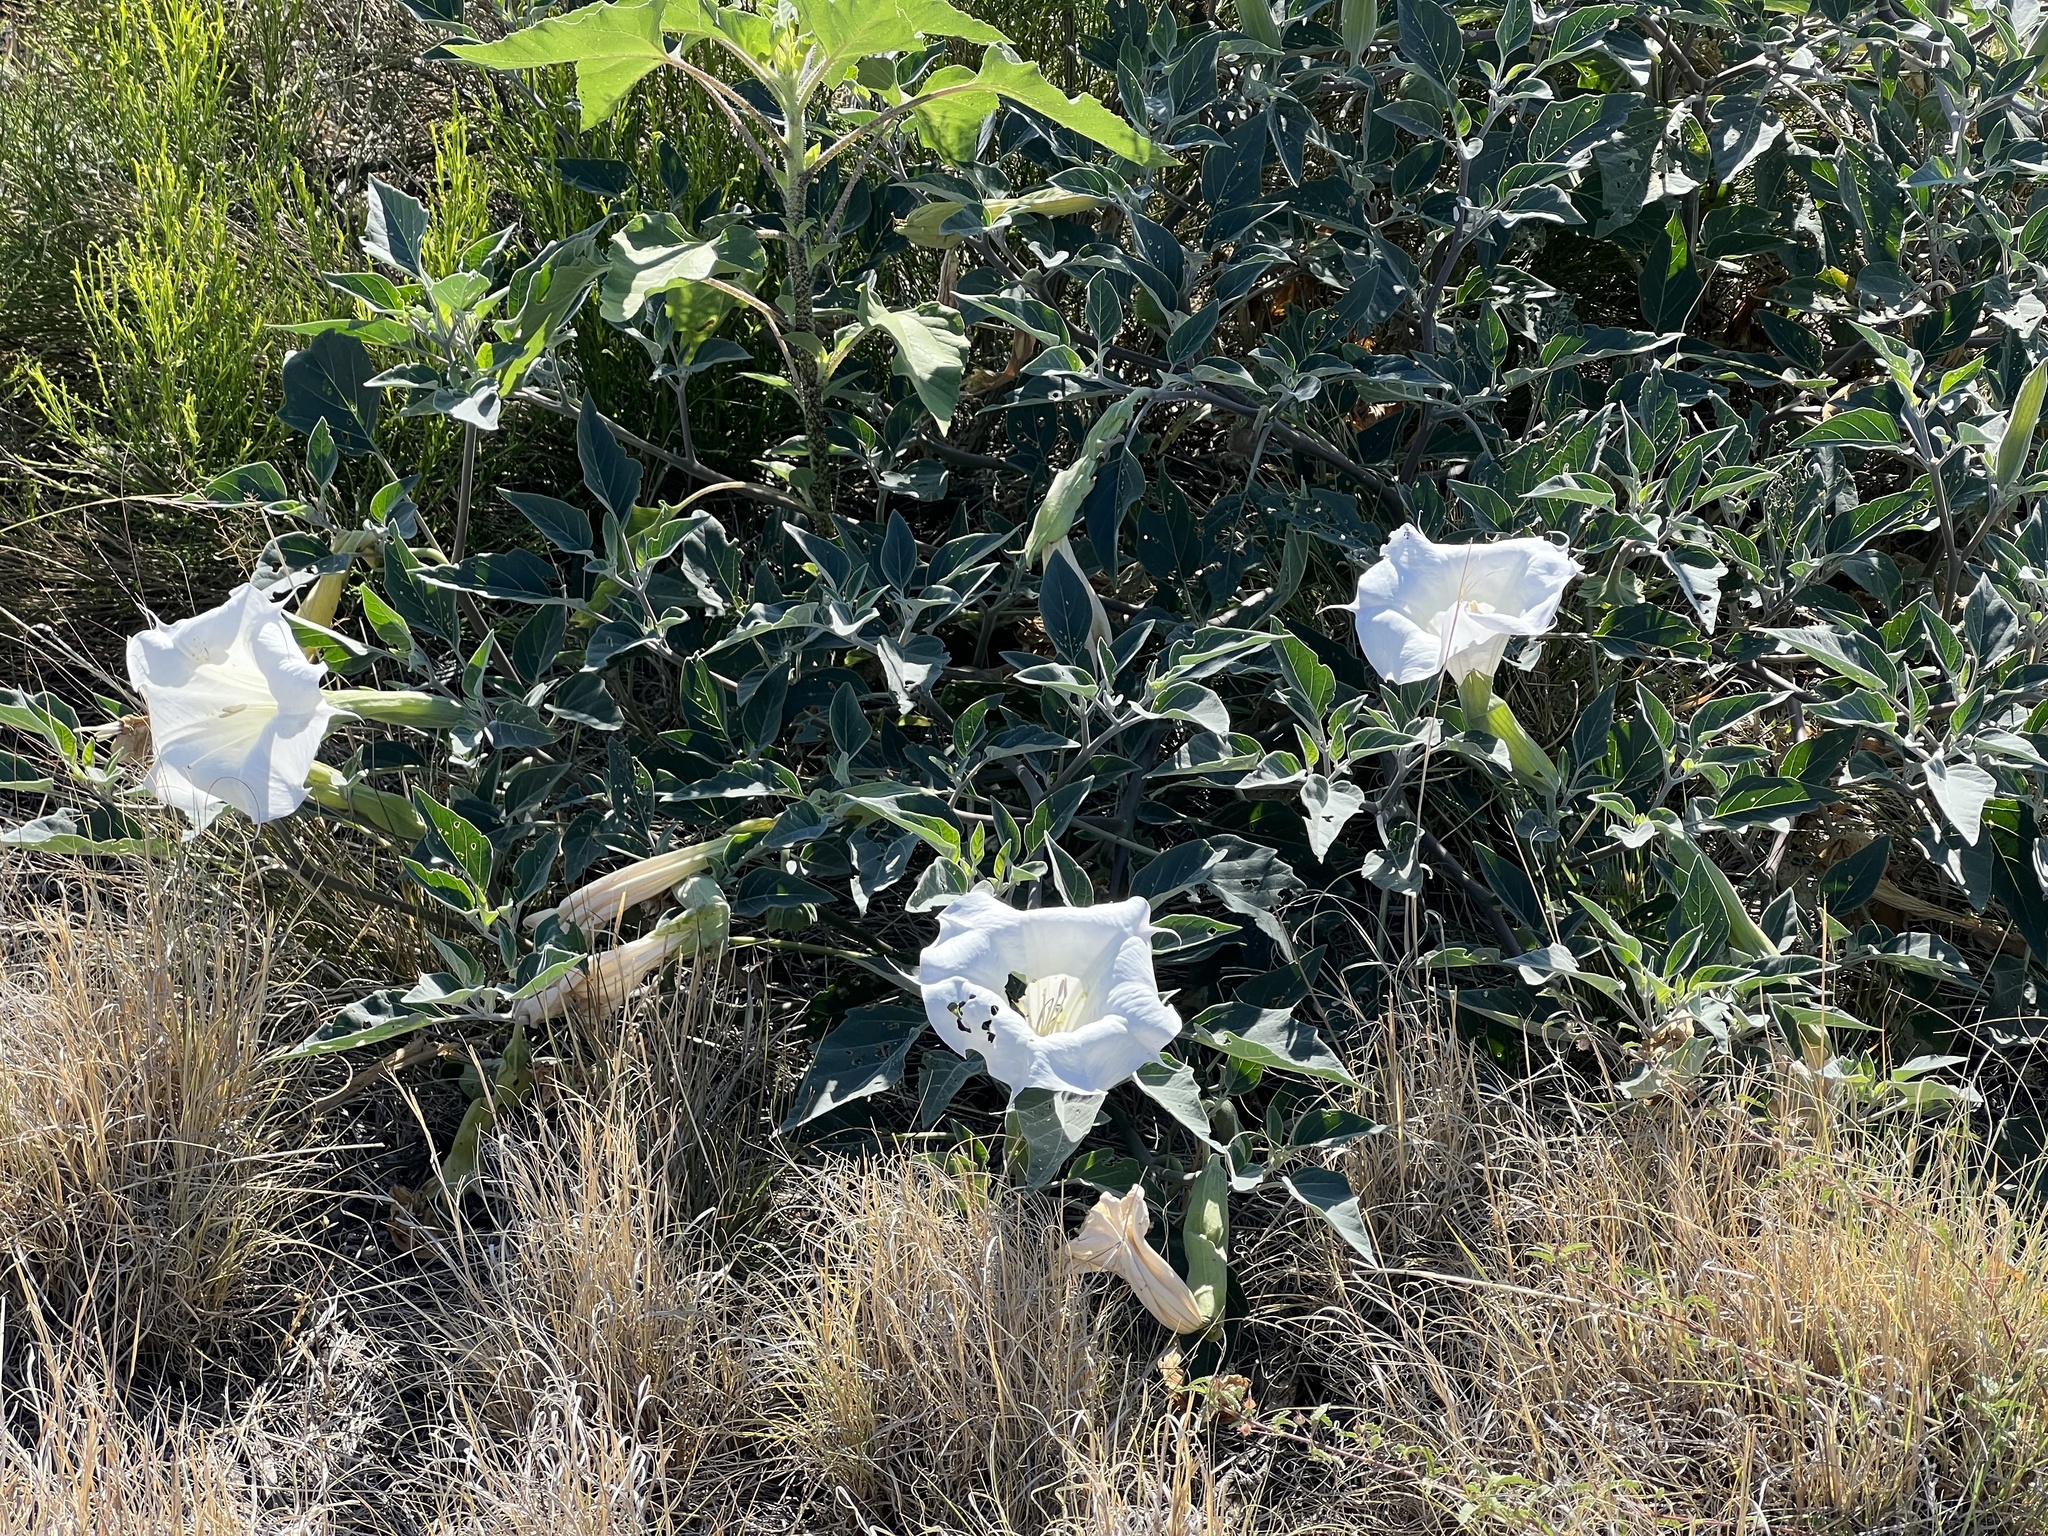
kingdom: Plantae
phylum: Tracheophyta
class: Magnoliopsida
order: Solanales
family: Solanaceae
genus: Datura
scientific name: Datura wrightii
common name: Sacred thorn-apple
